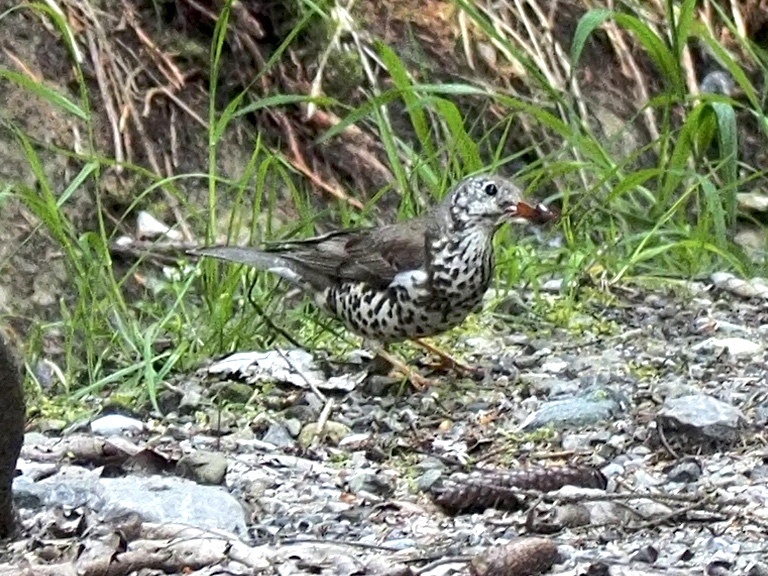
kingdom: Animalia
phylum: Chordata
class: Aves
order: Passeriformes
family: Turdidae
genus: Turdus
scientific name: Turdus viscivorus
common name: Mistle thrush
